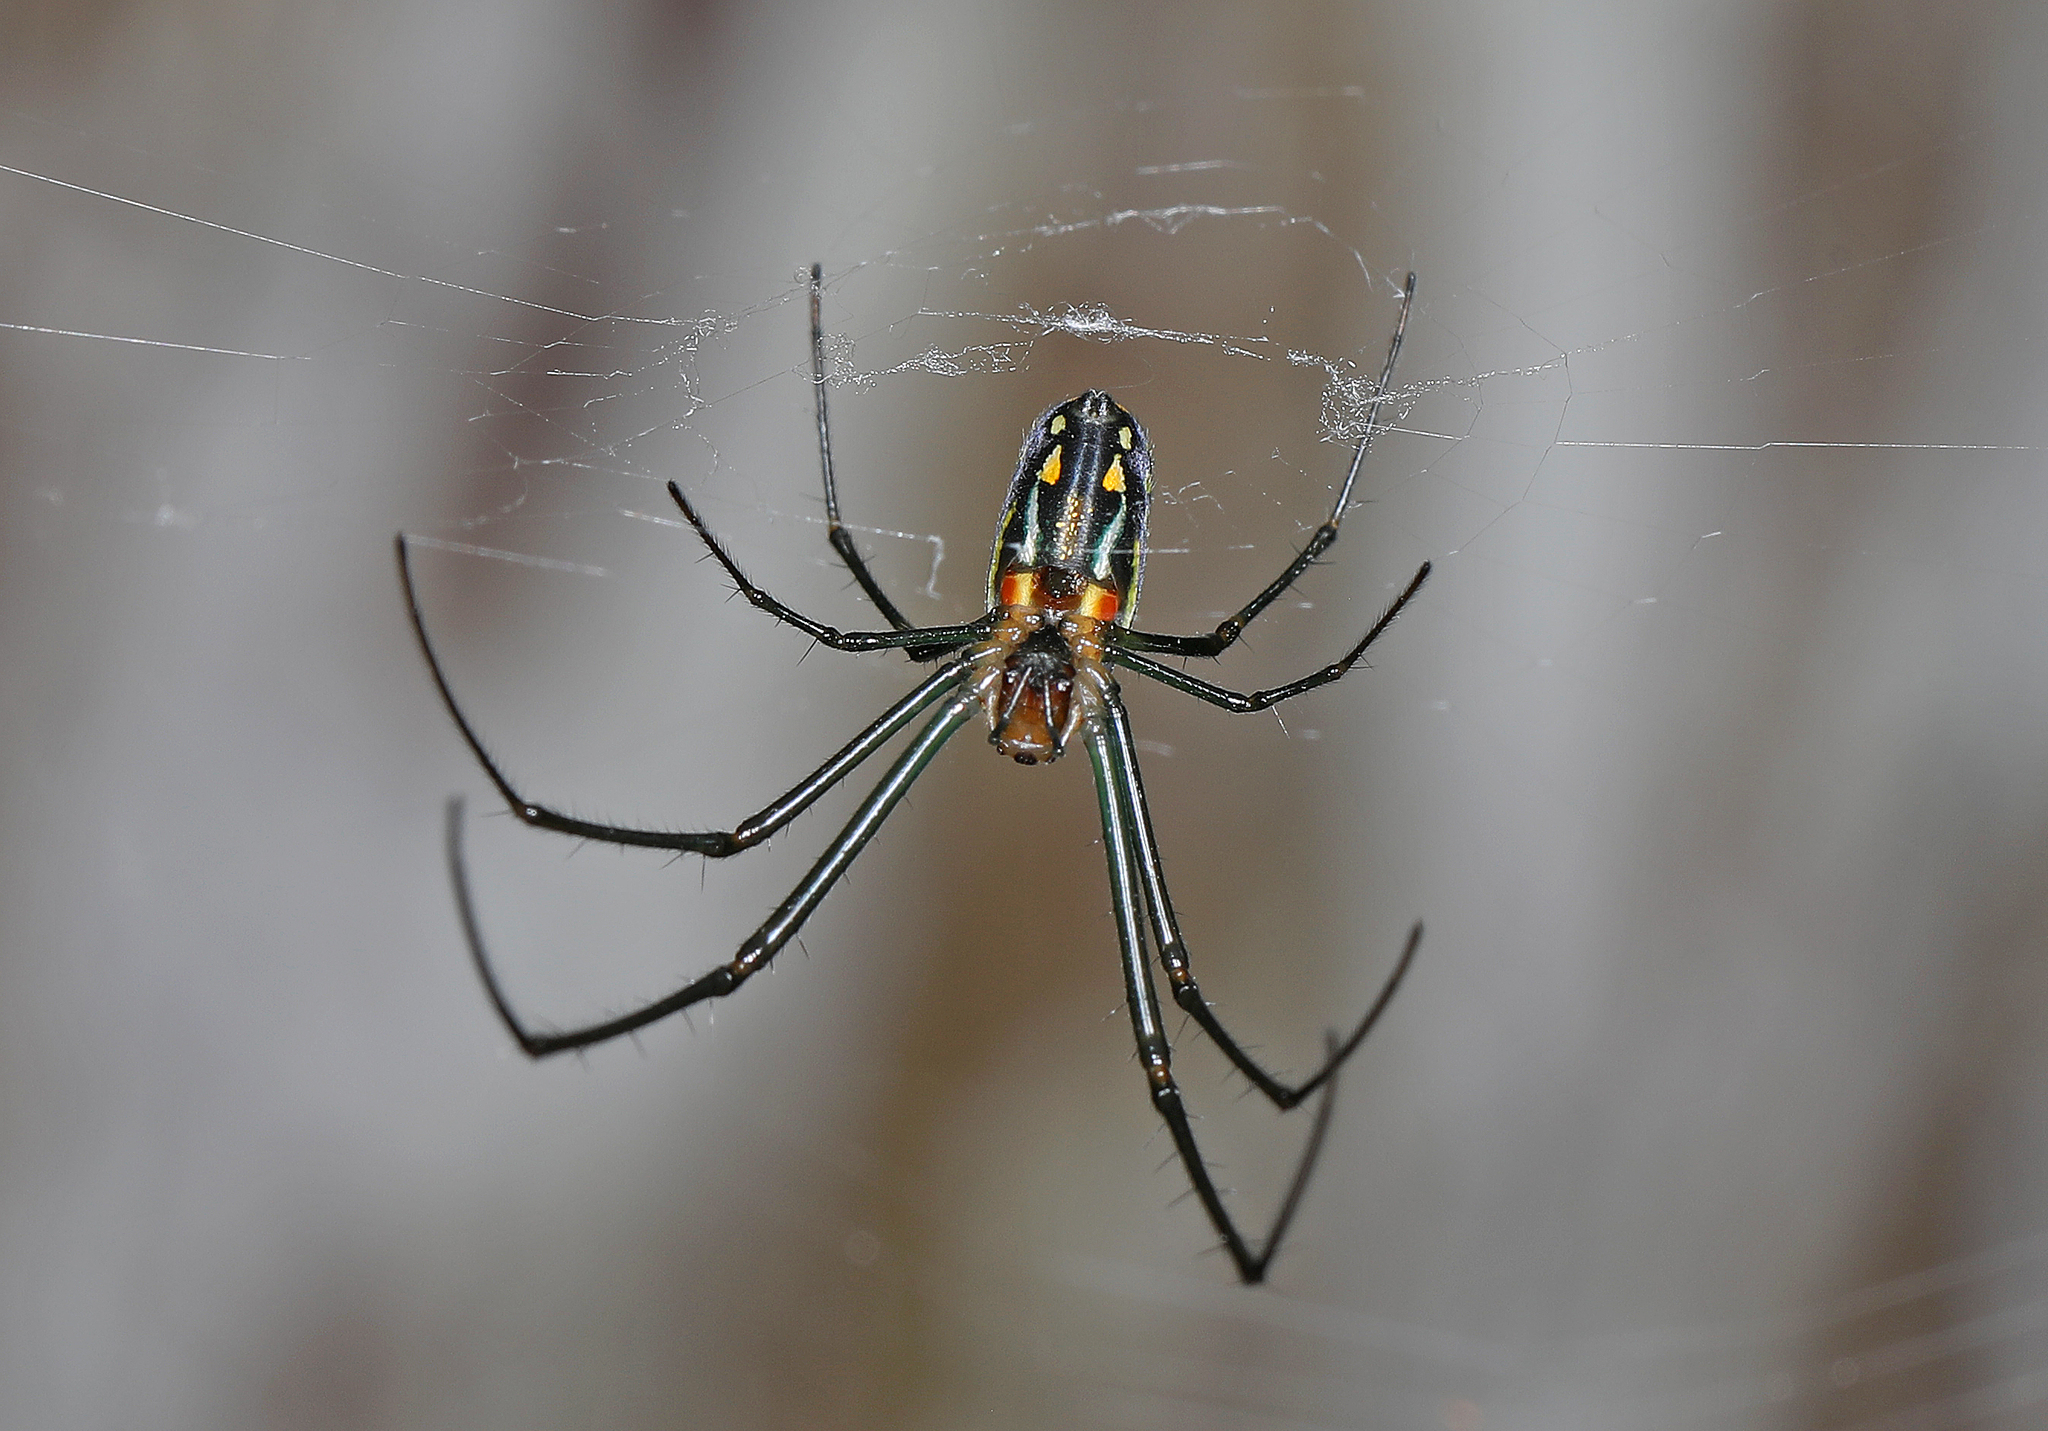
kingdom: Animalia
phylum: Arthropoda
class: Arachnida
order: Araneae
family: Tetragnathidae
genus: Leucauge
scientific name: Leucauge argyra
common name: Longjawed orb weavers
